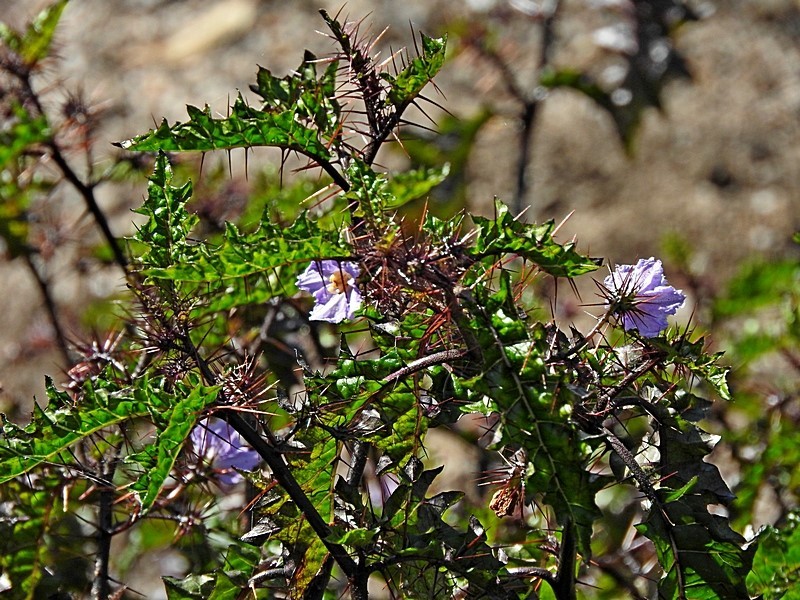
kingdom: Plantae
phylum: Tracheophyta
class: Magnoliopsida
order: Solanales
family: Solanaceae
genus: Solanum
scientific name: Solanum prinophyllum
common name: Forest nightshade
